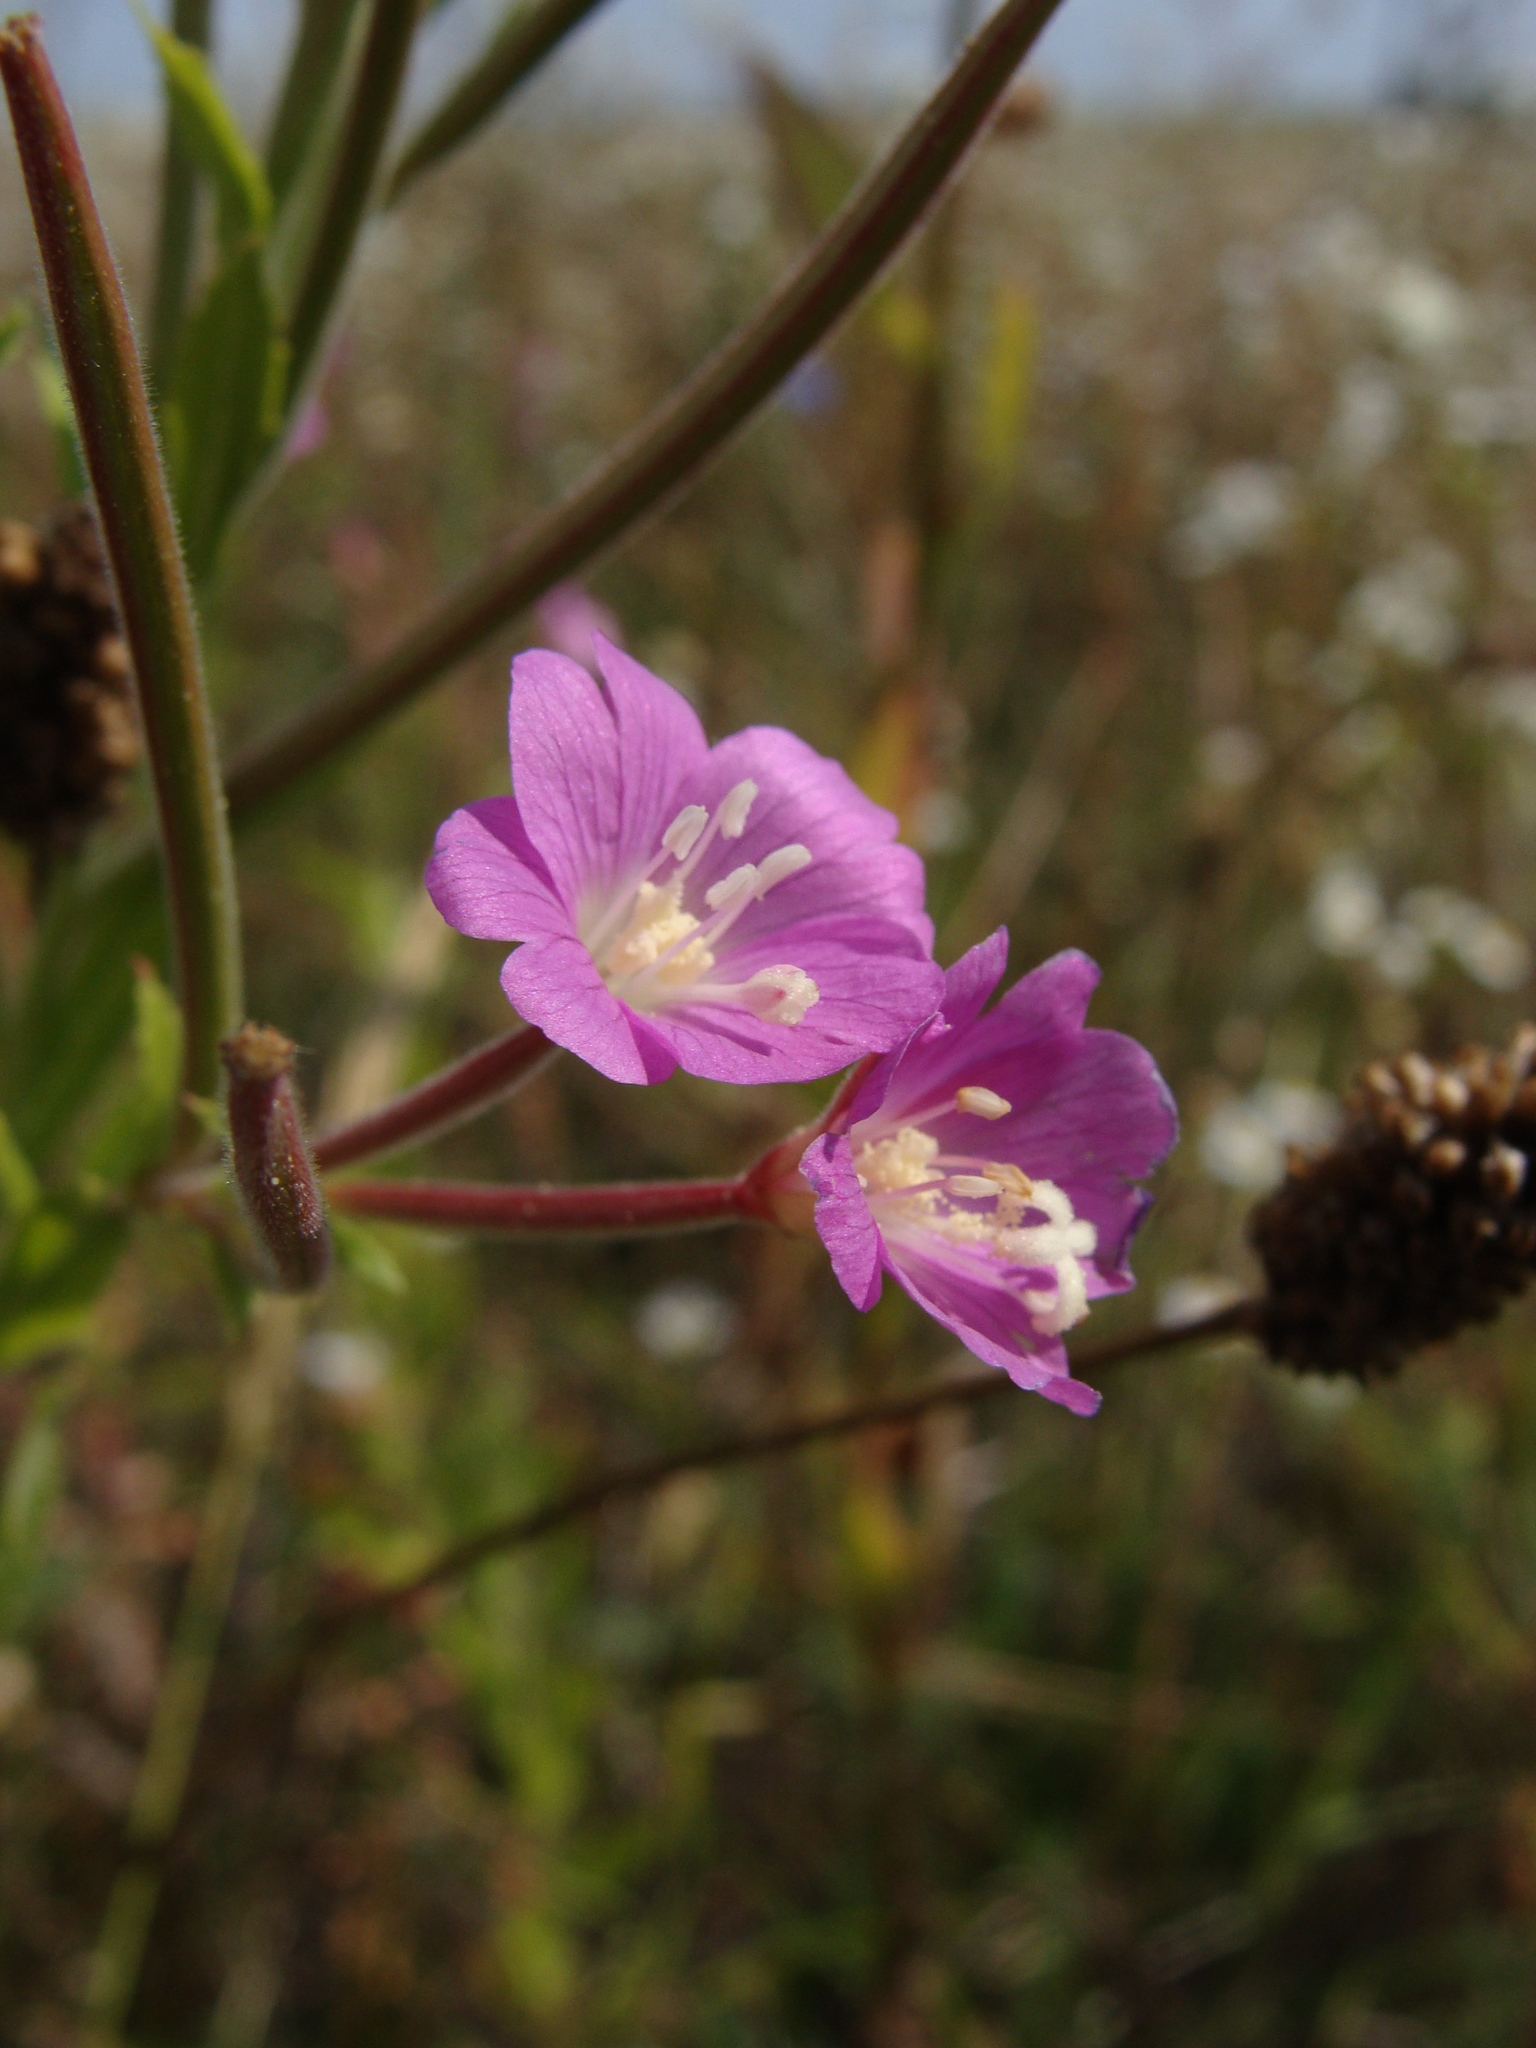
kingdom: Plantae
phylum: Tracheophyta
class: Magnoliopsida
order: Myrtales
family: Onagraceae
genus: Epilobium
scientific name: Epilobium hirsutum
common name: Great willowherb
